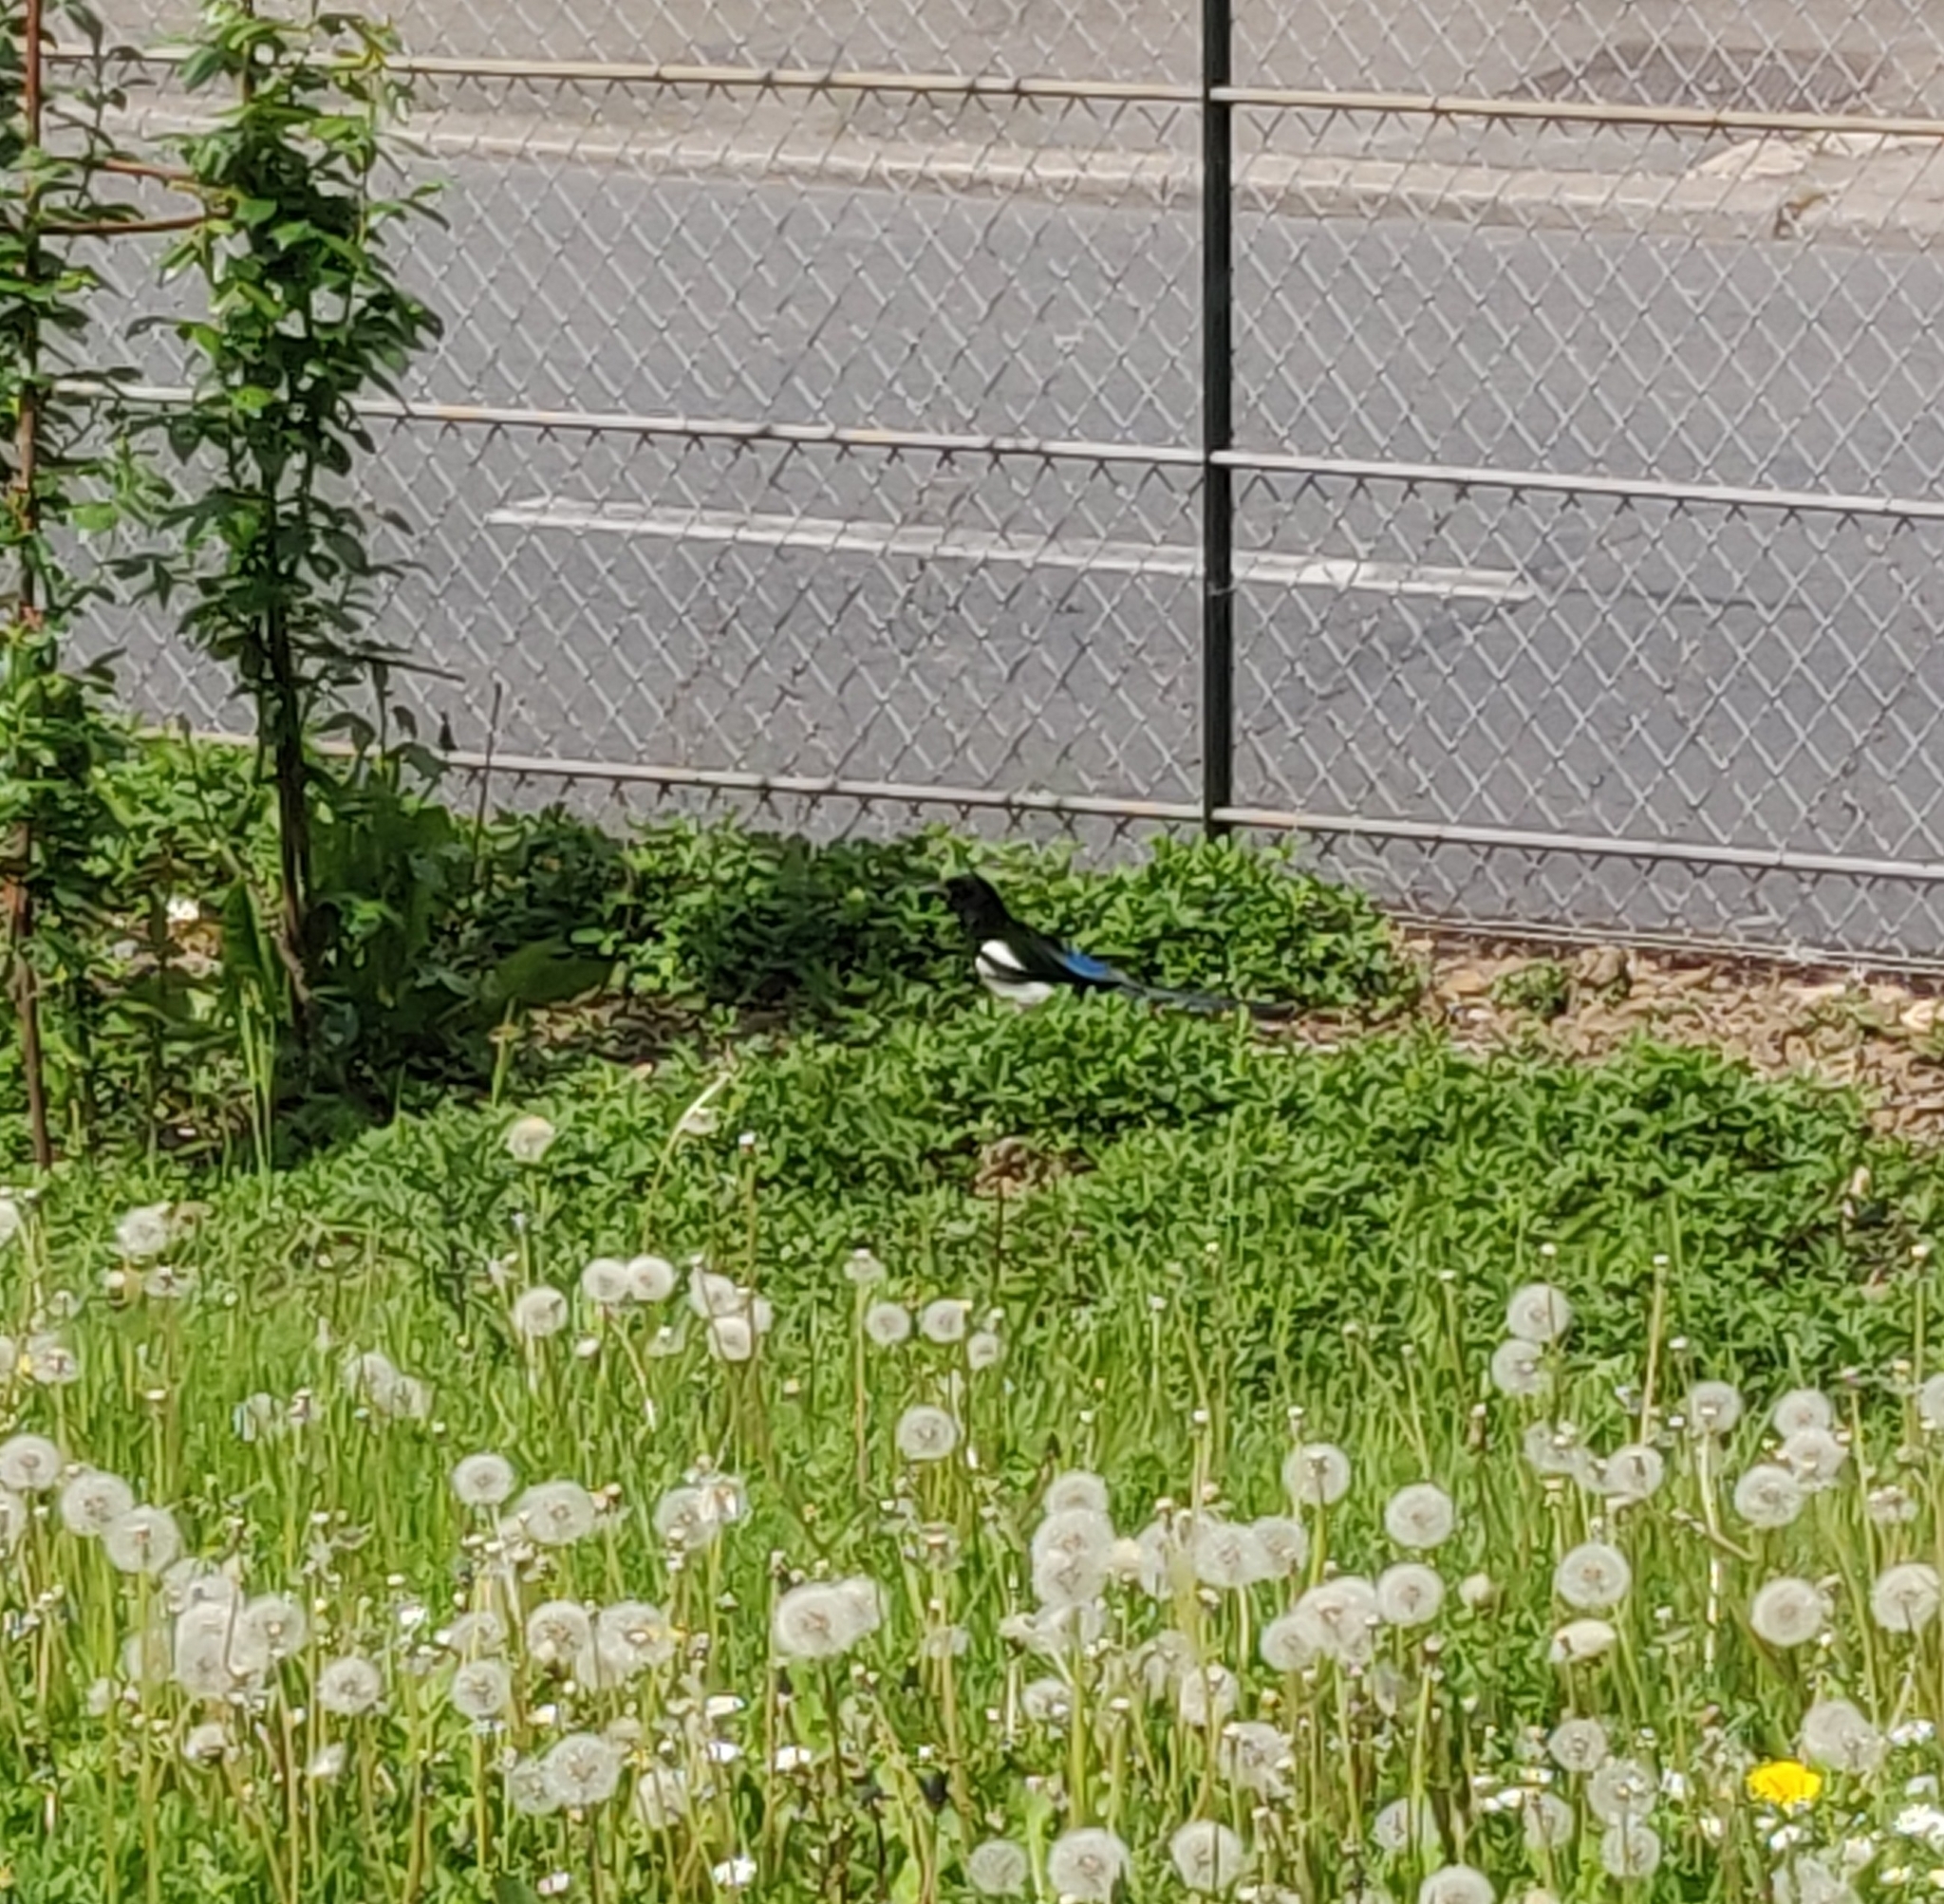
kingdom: Animalia
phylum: Chordata
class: Aves
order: Passeriformes
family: Corvidae
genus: Pica
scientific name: Pica pica
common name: Eurasian magpie
